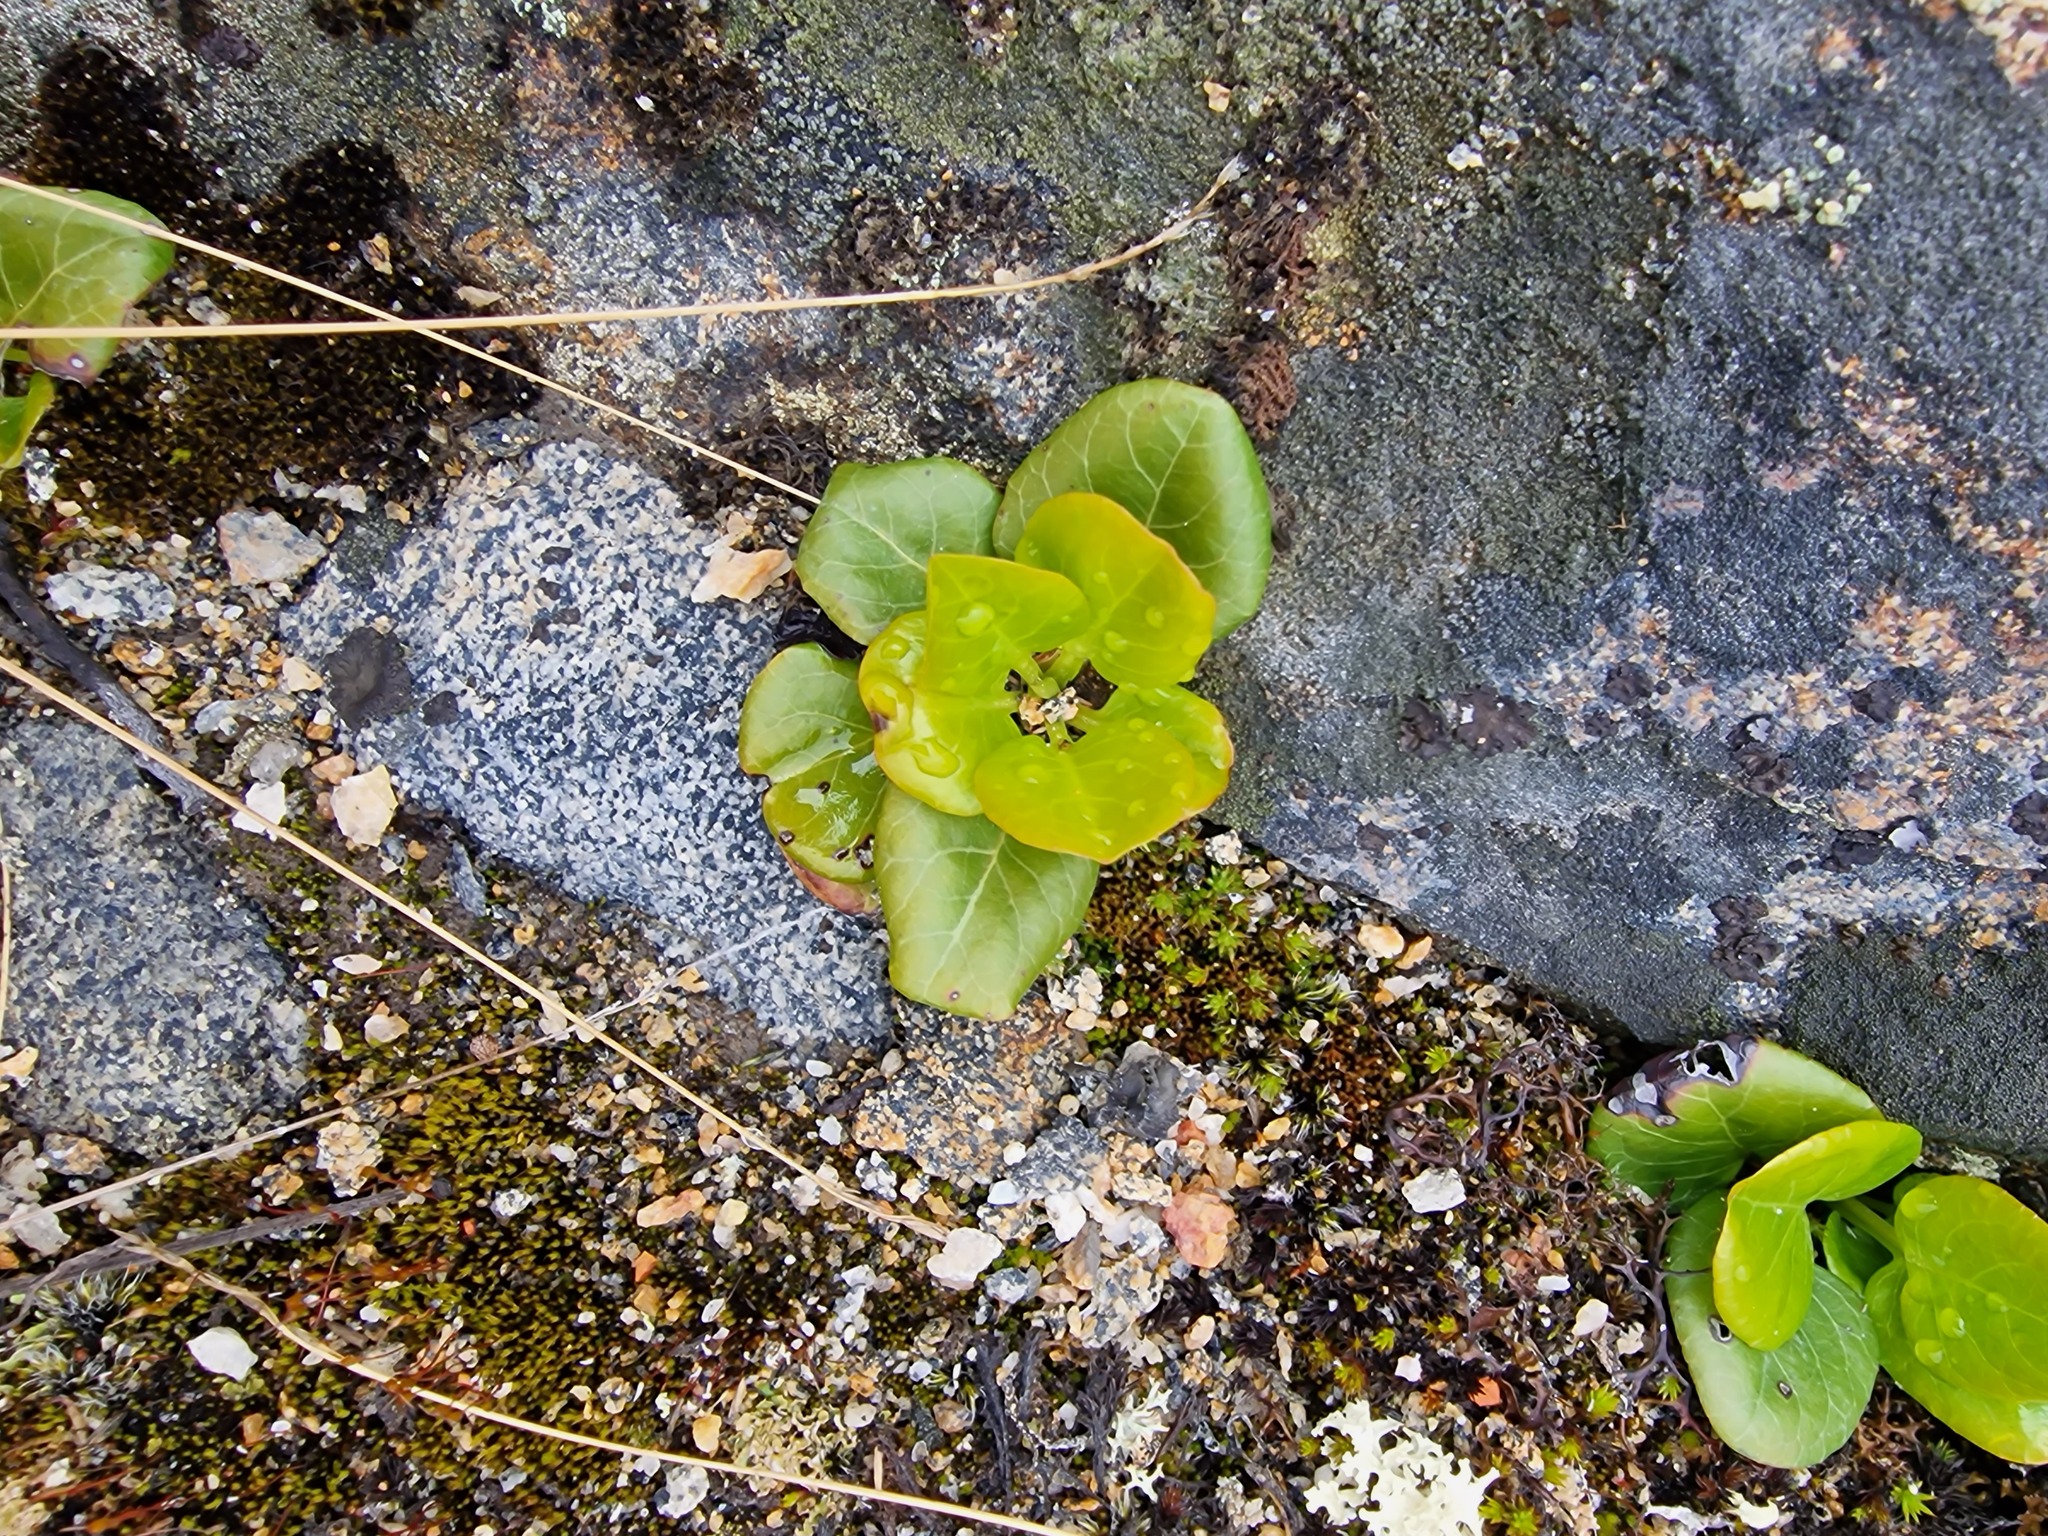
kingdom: Plantae
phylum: Tracheophyta
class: Magnoliopsida
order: Ericales
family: Ericaceae
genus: Pyrola
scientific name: Pyrola grandiflora
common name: Arctic pyrola
